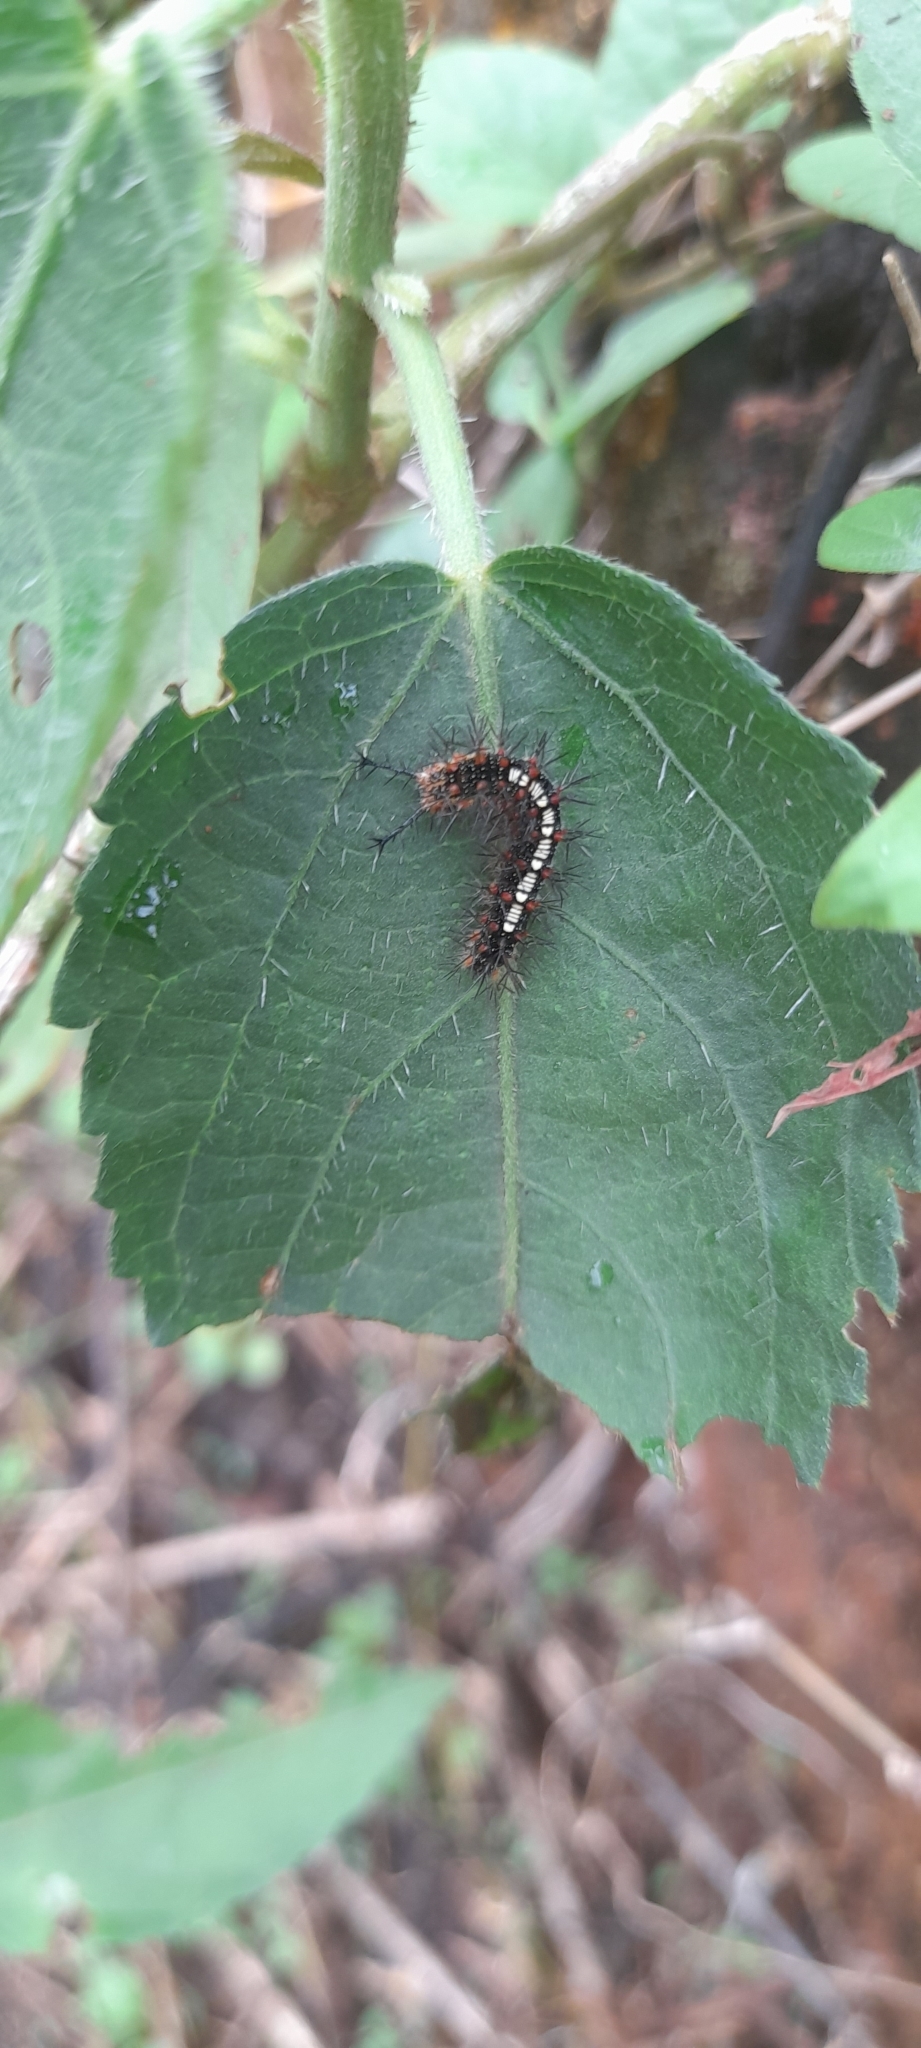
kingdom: Animalia
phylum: Arthropoda
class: Insecta
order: Lepidoptera
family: Nymphalidae
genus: Ariadne
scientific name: Ariadne ariadne
